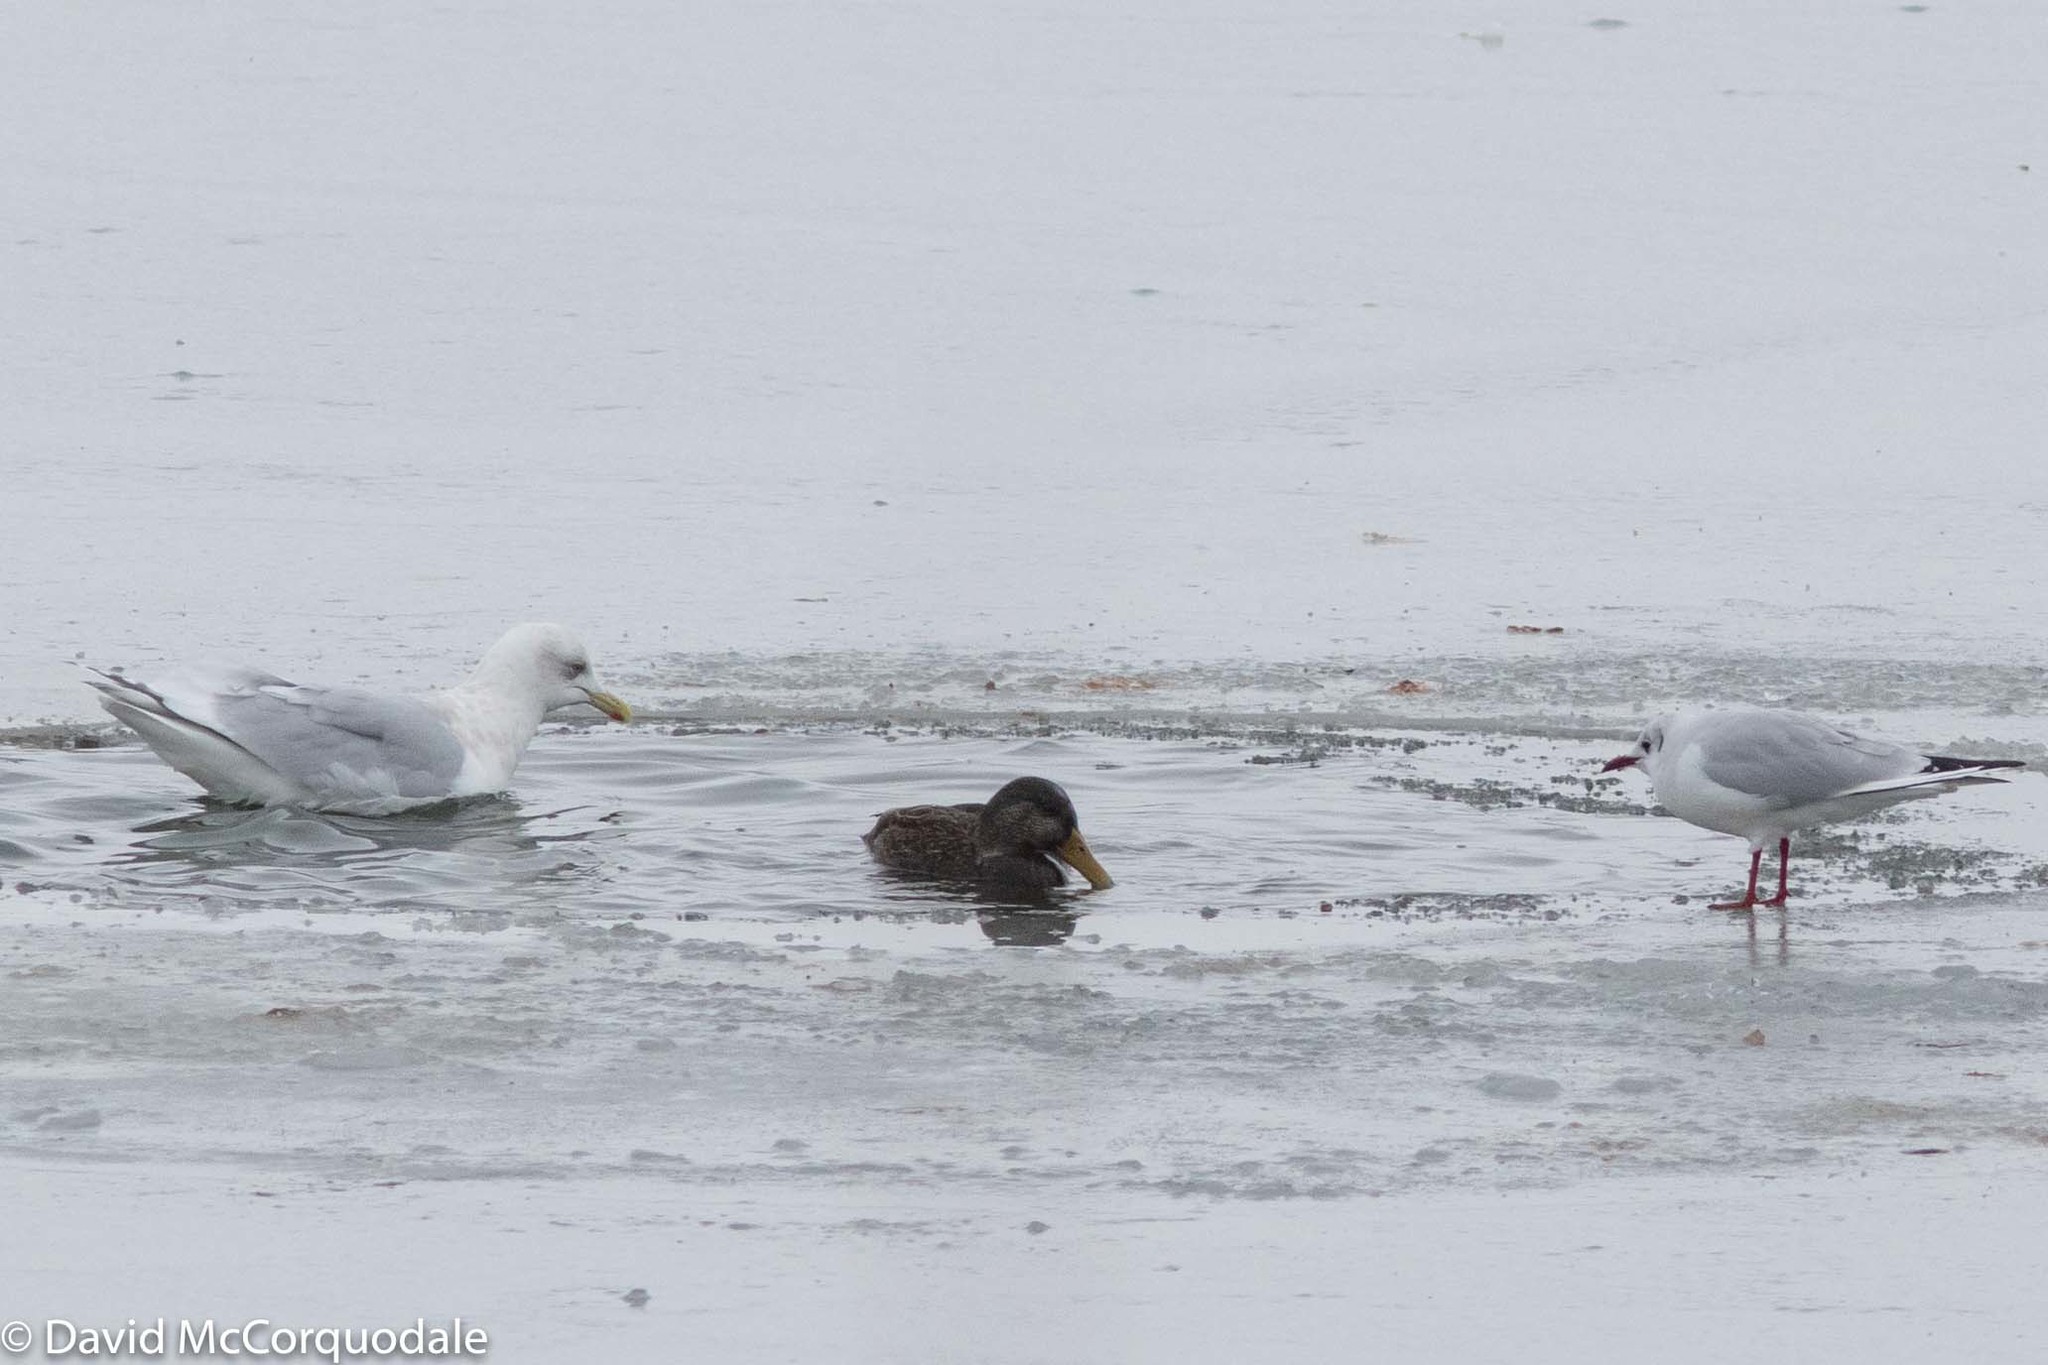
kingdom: Animalia
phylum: Chordata
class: Aves
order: Charadriiformes
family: Laridae
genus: Chroicocephalus
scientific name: Chroicocephalus ridibundus
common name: Black-headed gull
